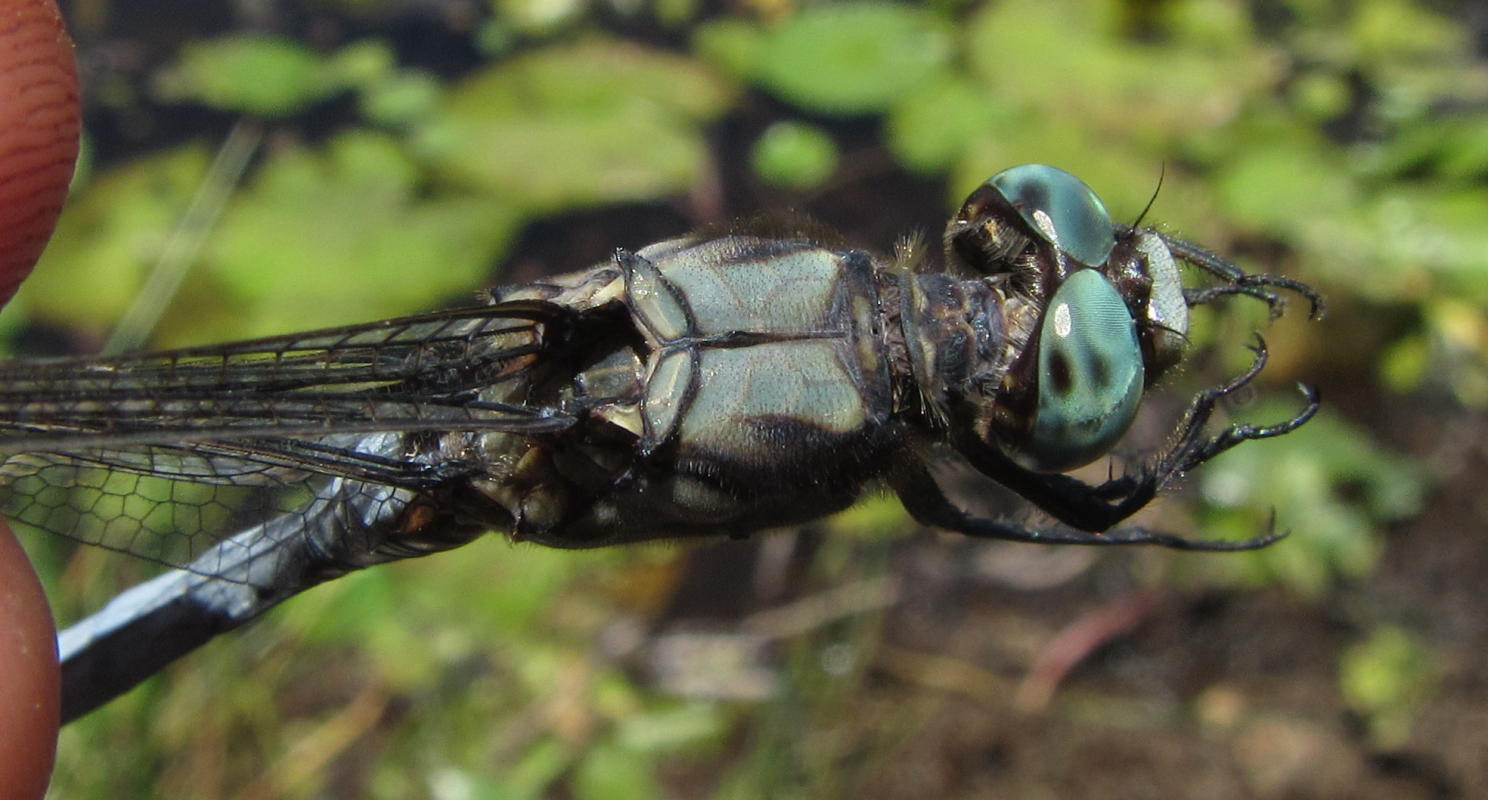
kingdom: Animalia
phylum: Arthropoda
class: Insecta
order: Odonata
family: Libellulidae
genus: Orthetrum
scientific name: Orthetrum robustum
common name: Robust skimmer
